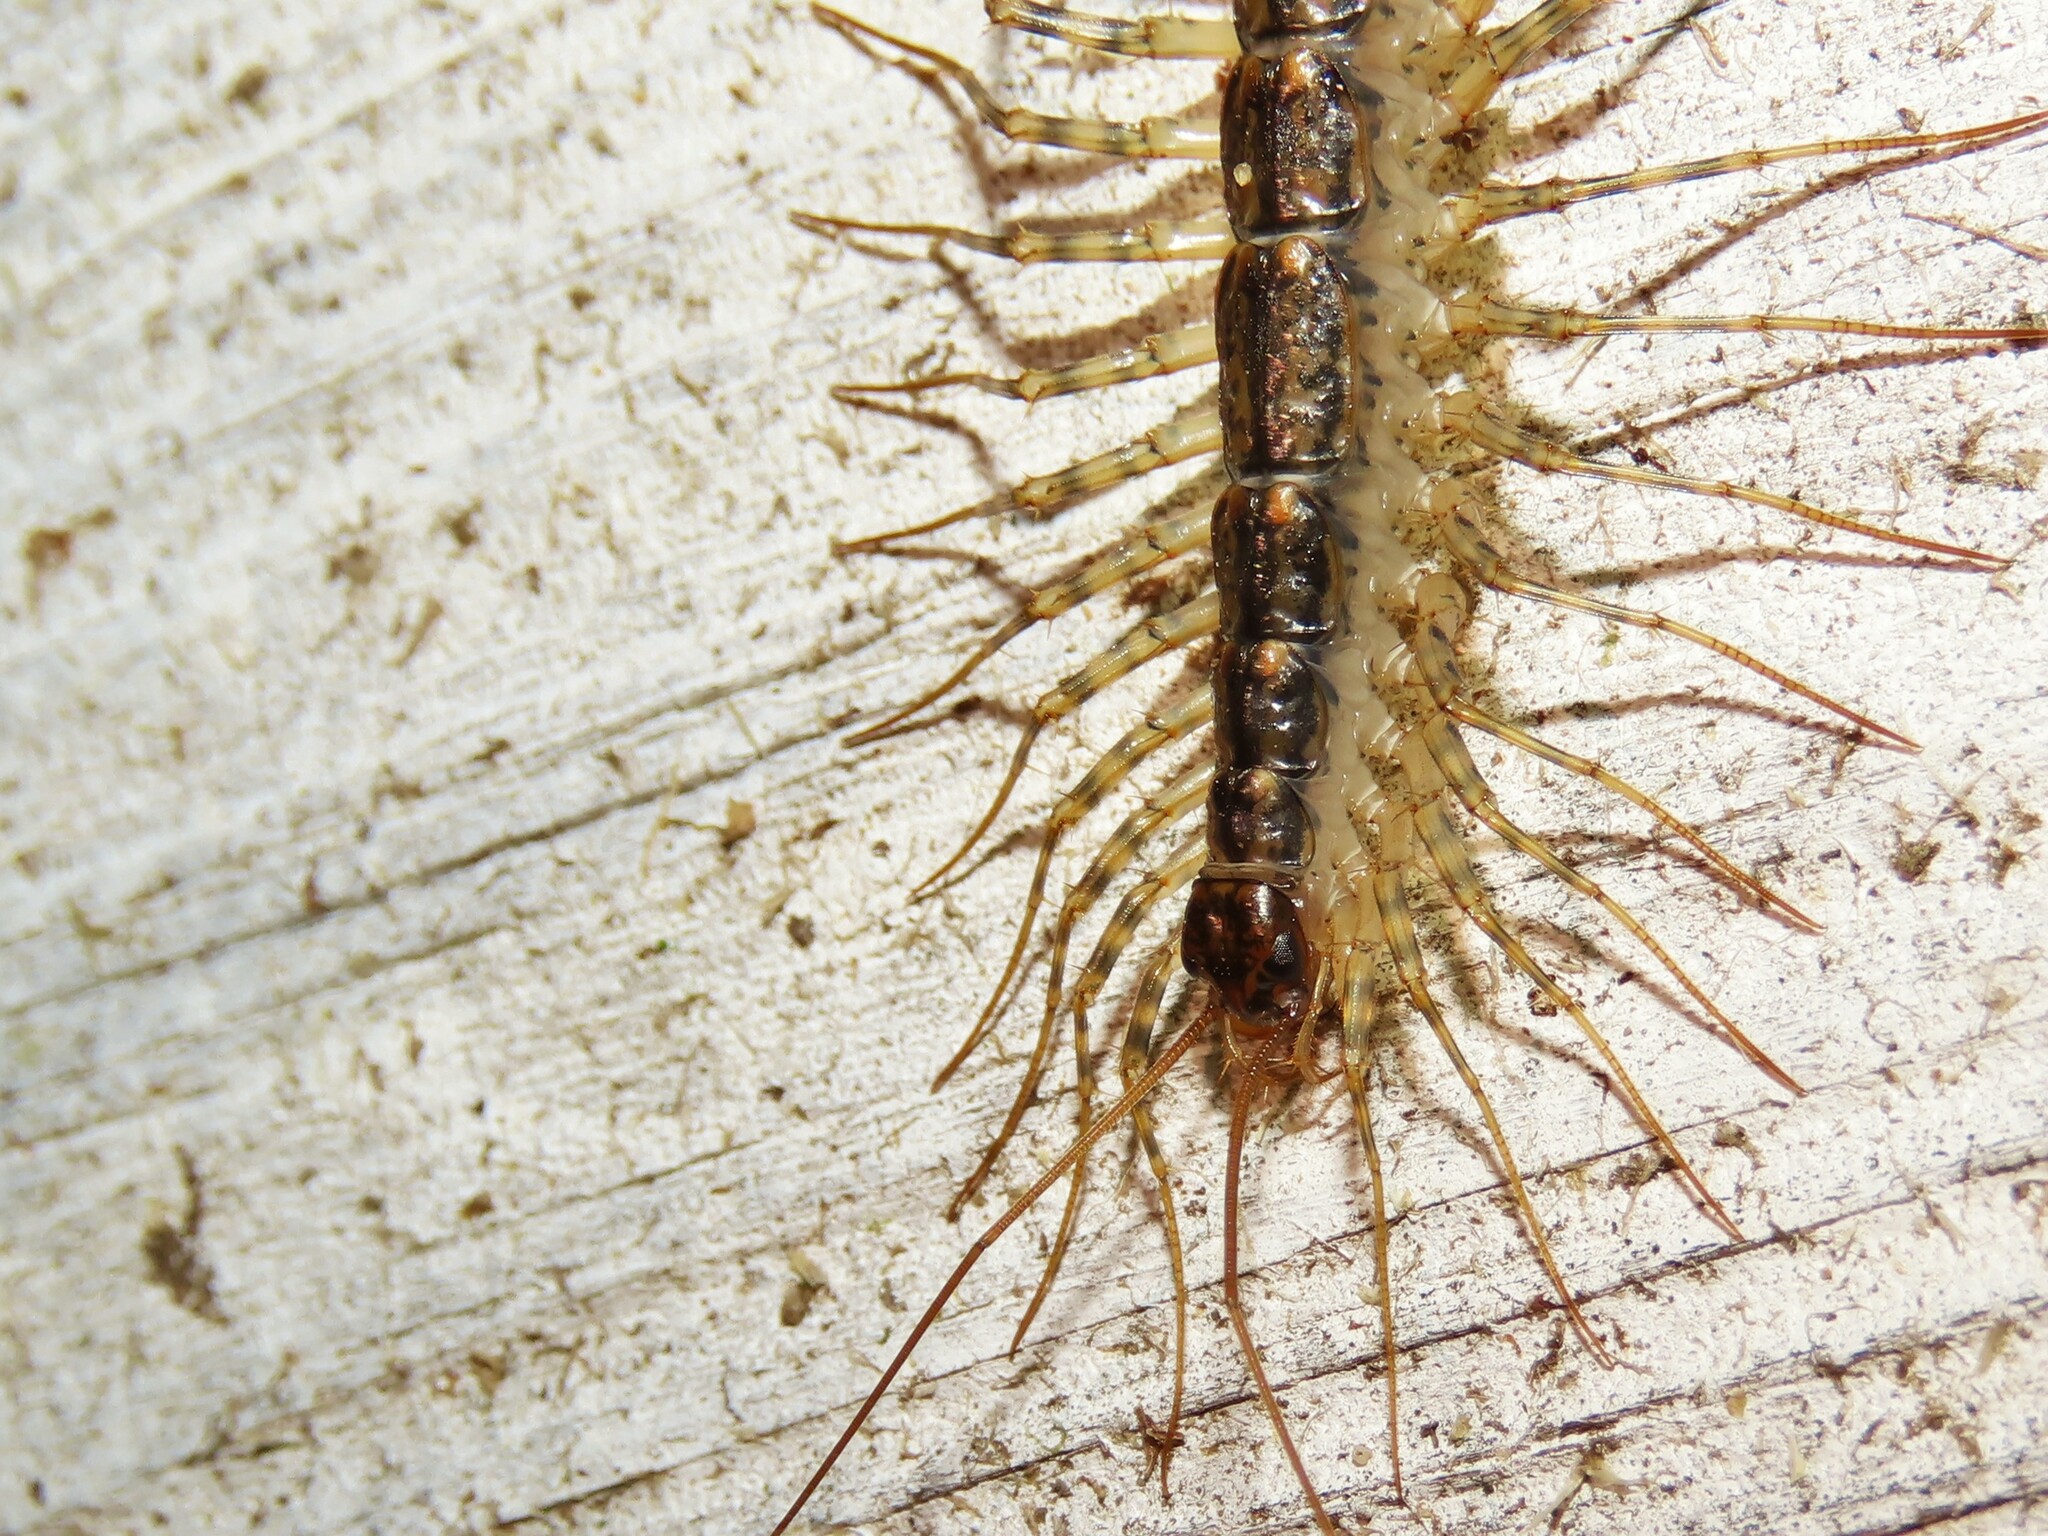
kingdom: Animalia
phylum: Arthropoda
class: Chilopoda
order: Scutigeromorpha
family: Scutigeridae
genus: Thereuonema
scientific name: Thereuonema tuberculata
